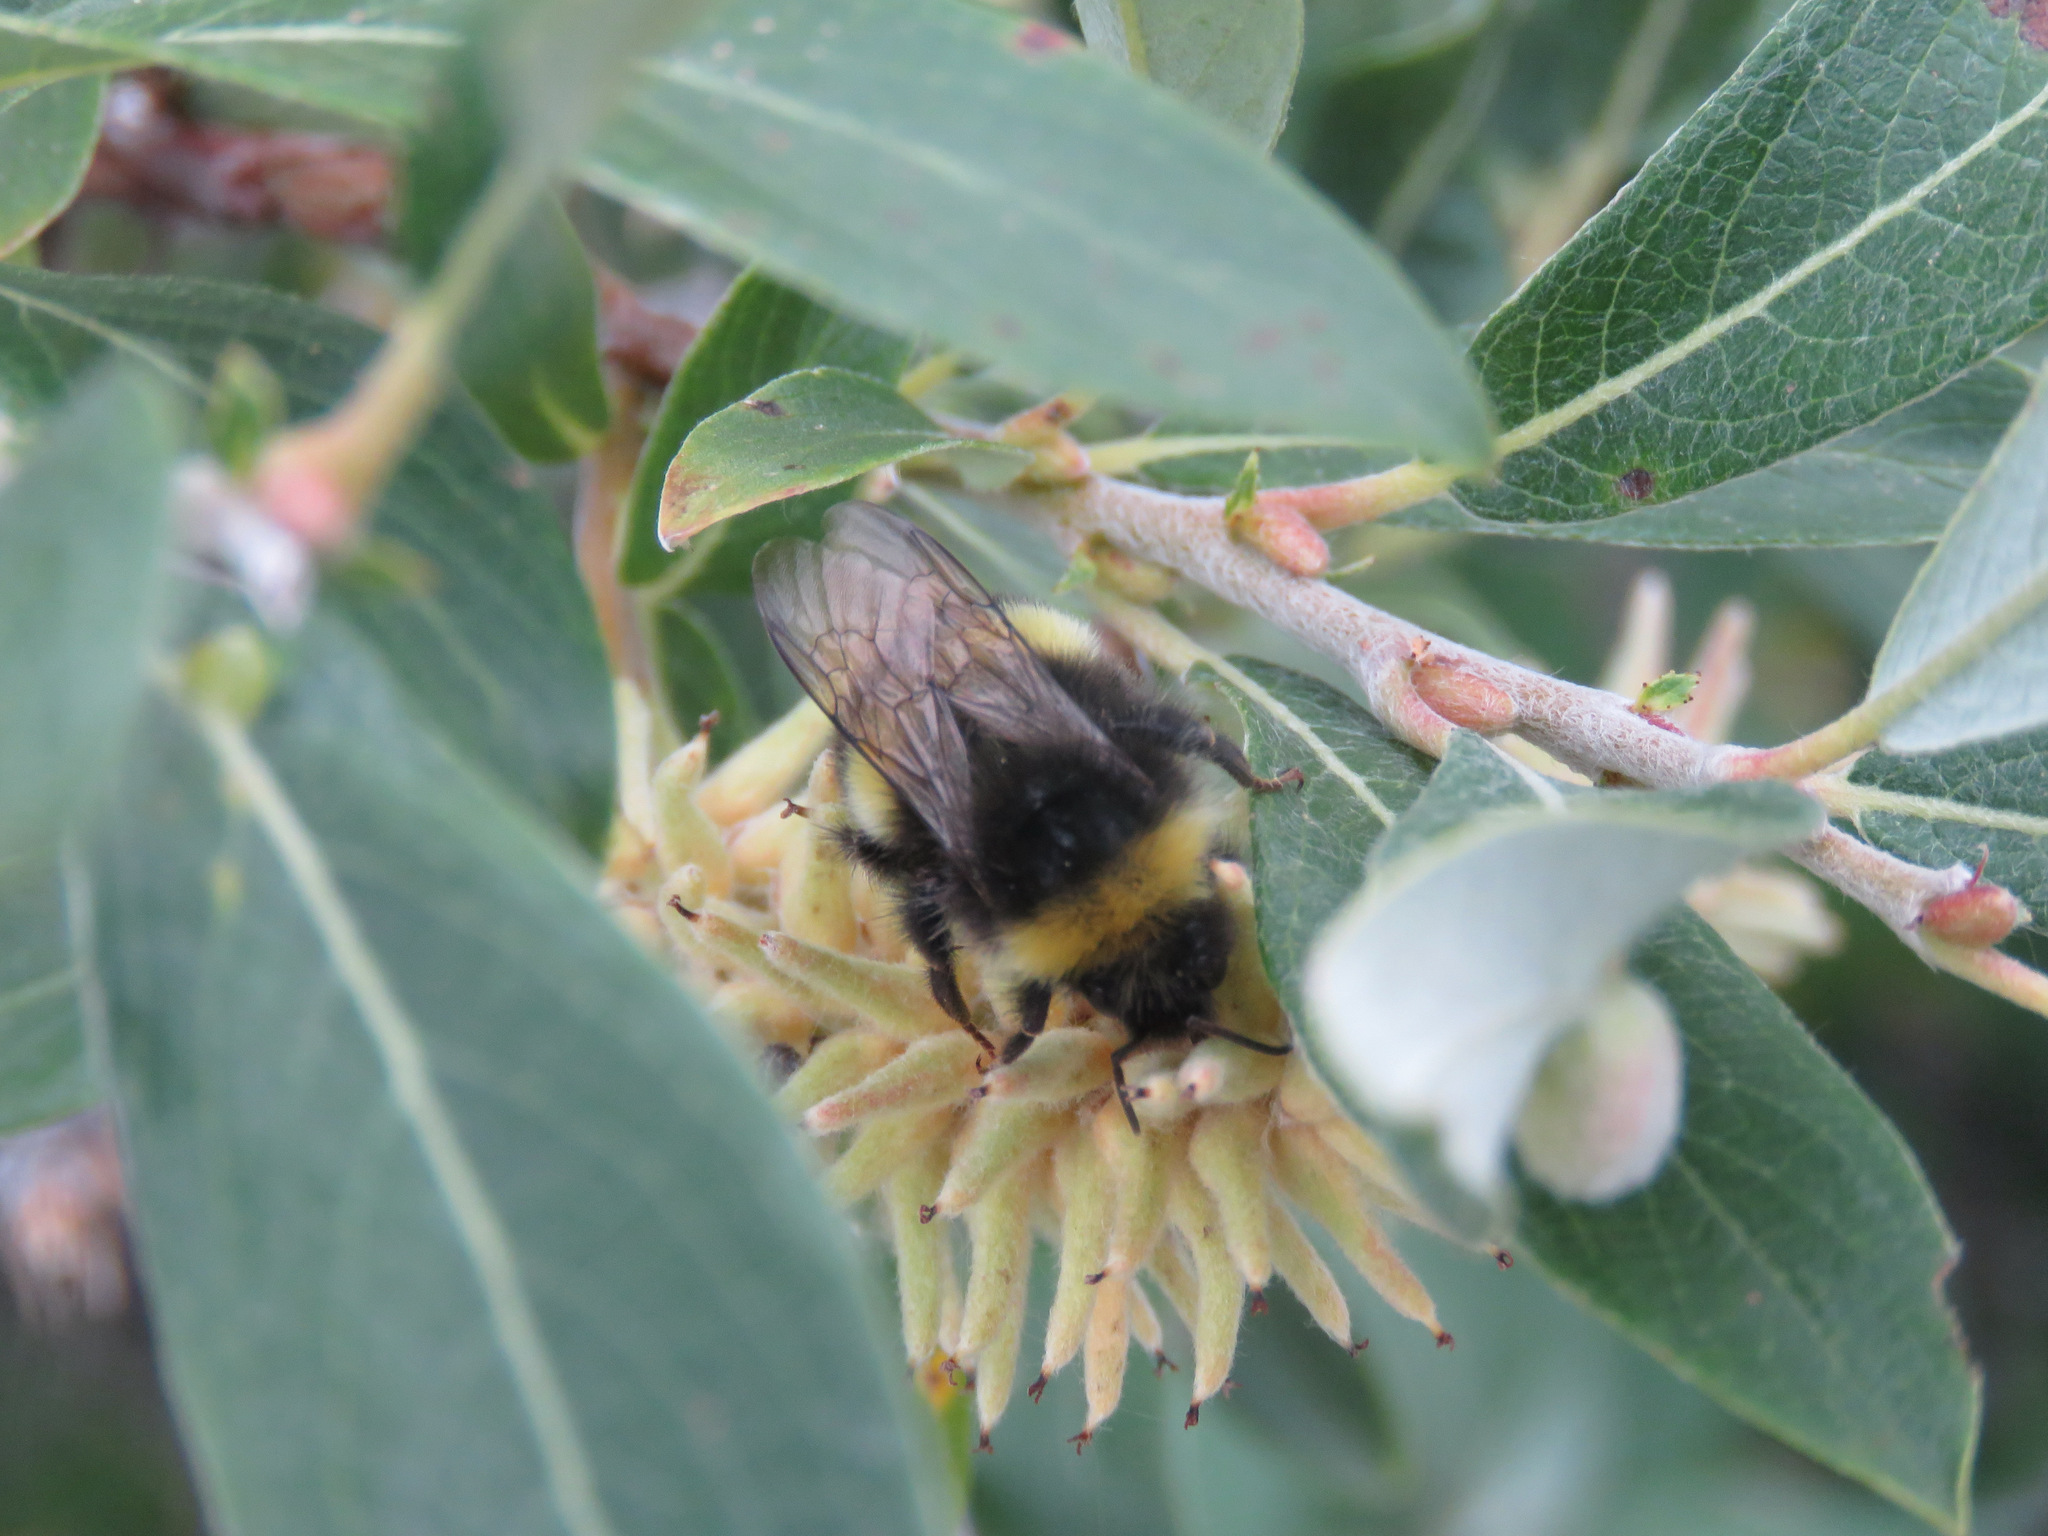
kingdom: Animalia
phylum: Arthropoda
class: Insecta
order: Hymenoptera
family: Apidae
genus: Bombus
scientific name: Bombus cryptarum
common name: Cryptic bumblebee
